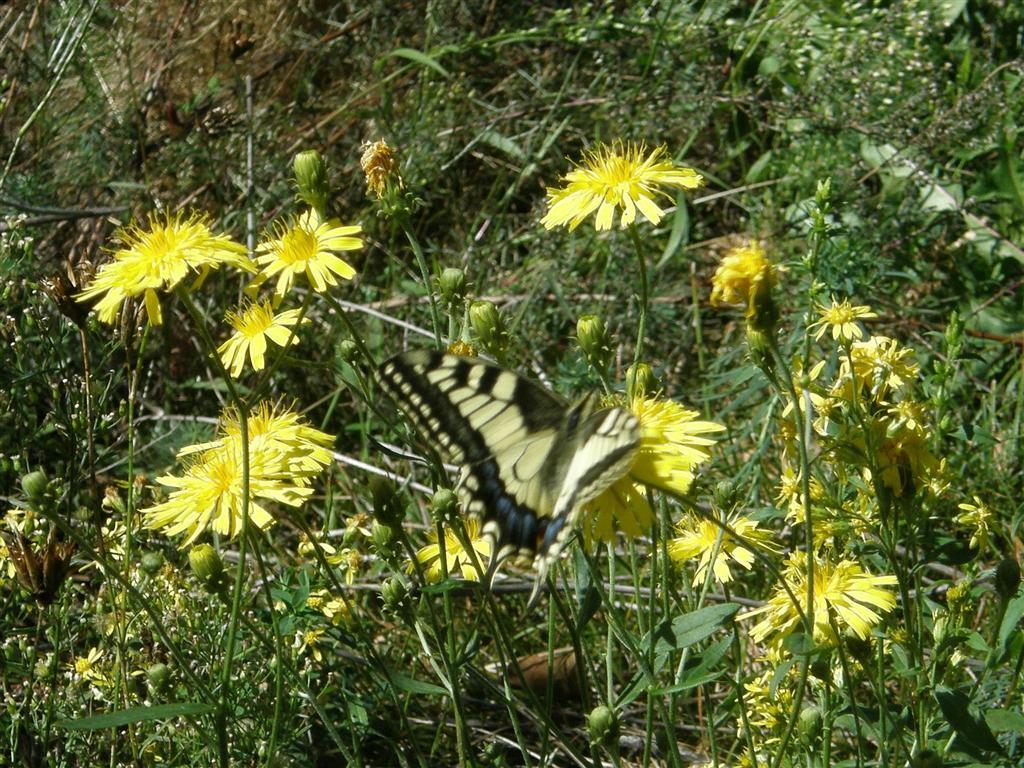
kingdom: Animalia
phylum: Arthropoda
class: Insecta
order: Lepidoptera
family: Papilionidae
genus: Papilio
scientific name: Papilio machaon
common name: Swallowtail
